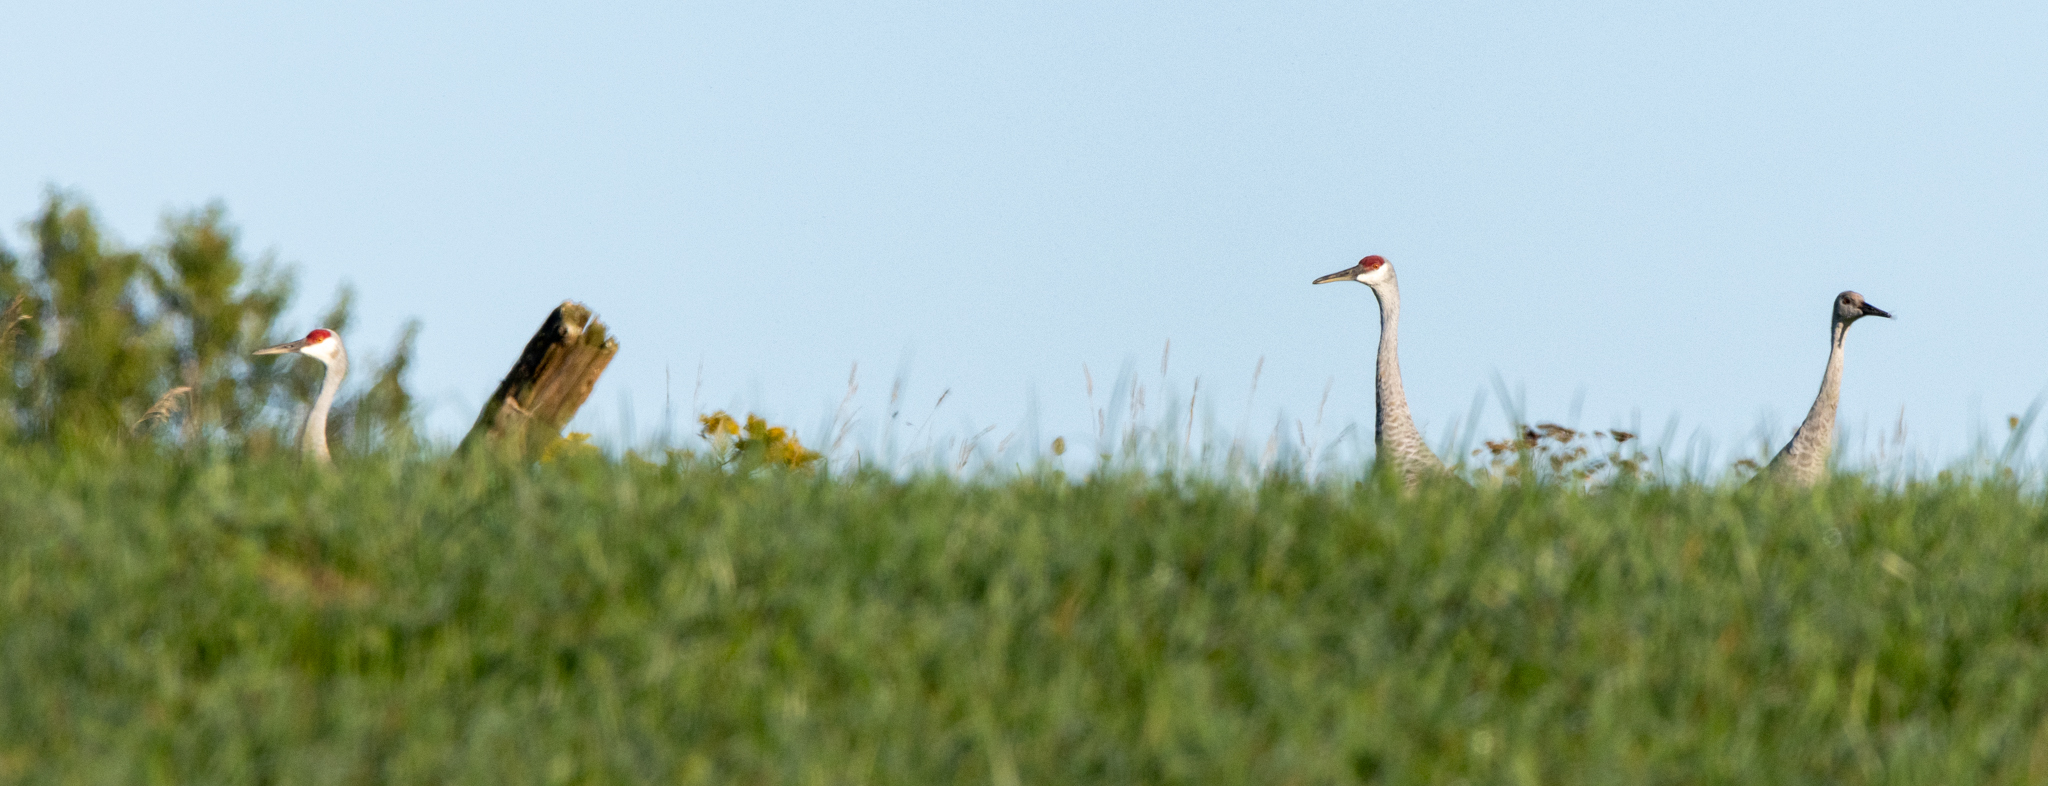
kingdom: Animalia
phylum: Chordata
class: Aves
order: Gruiformes
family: Gruidae
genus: Grus
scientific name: Grus canadensis
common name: Sandhill crane
